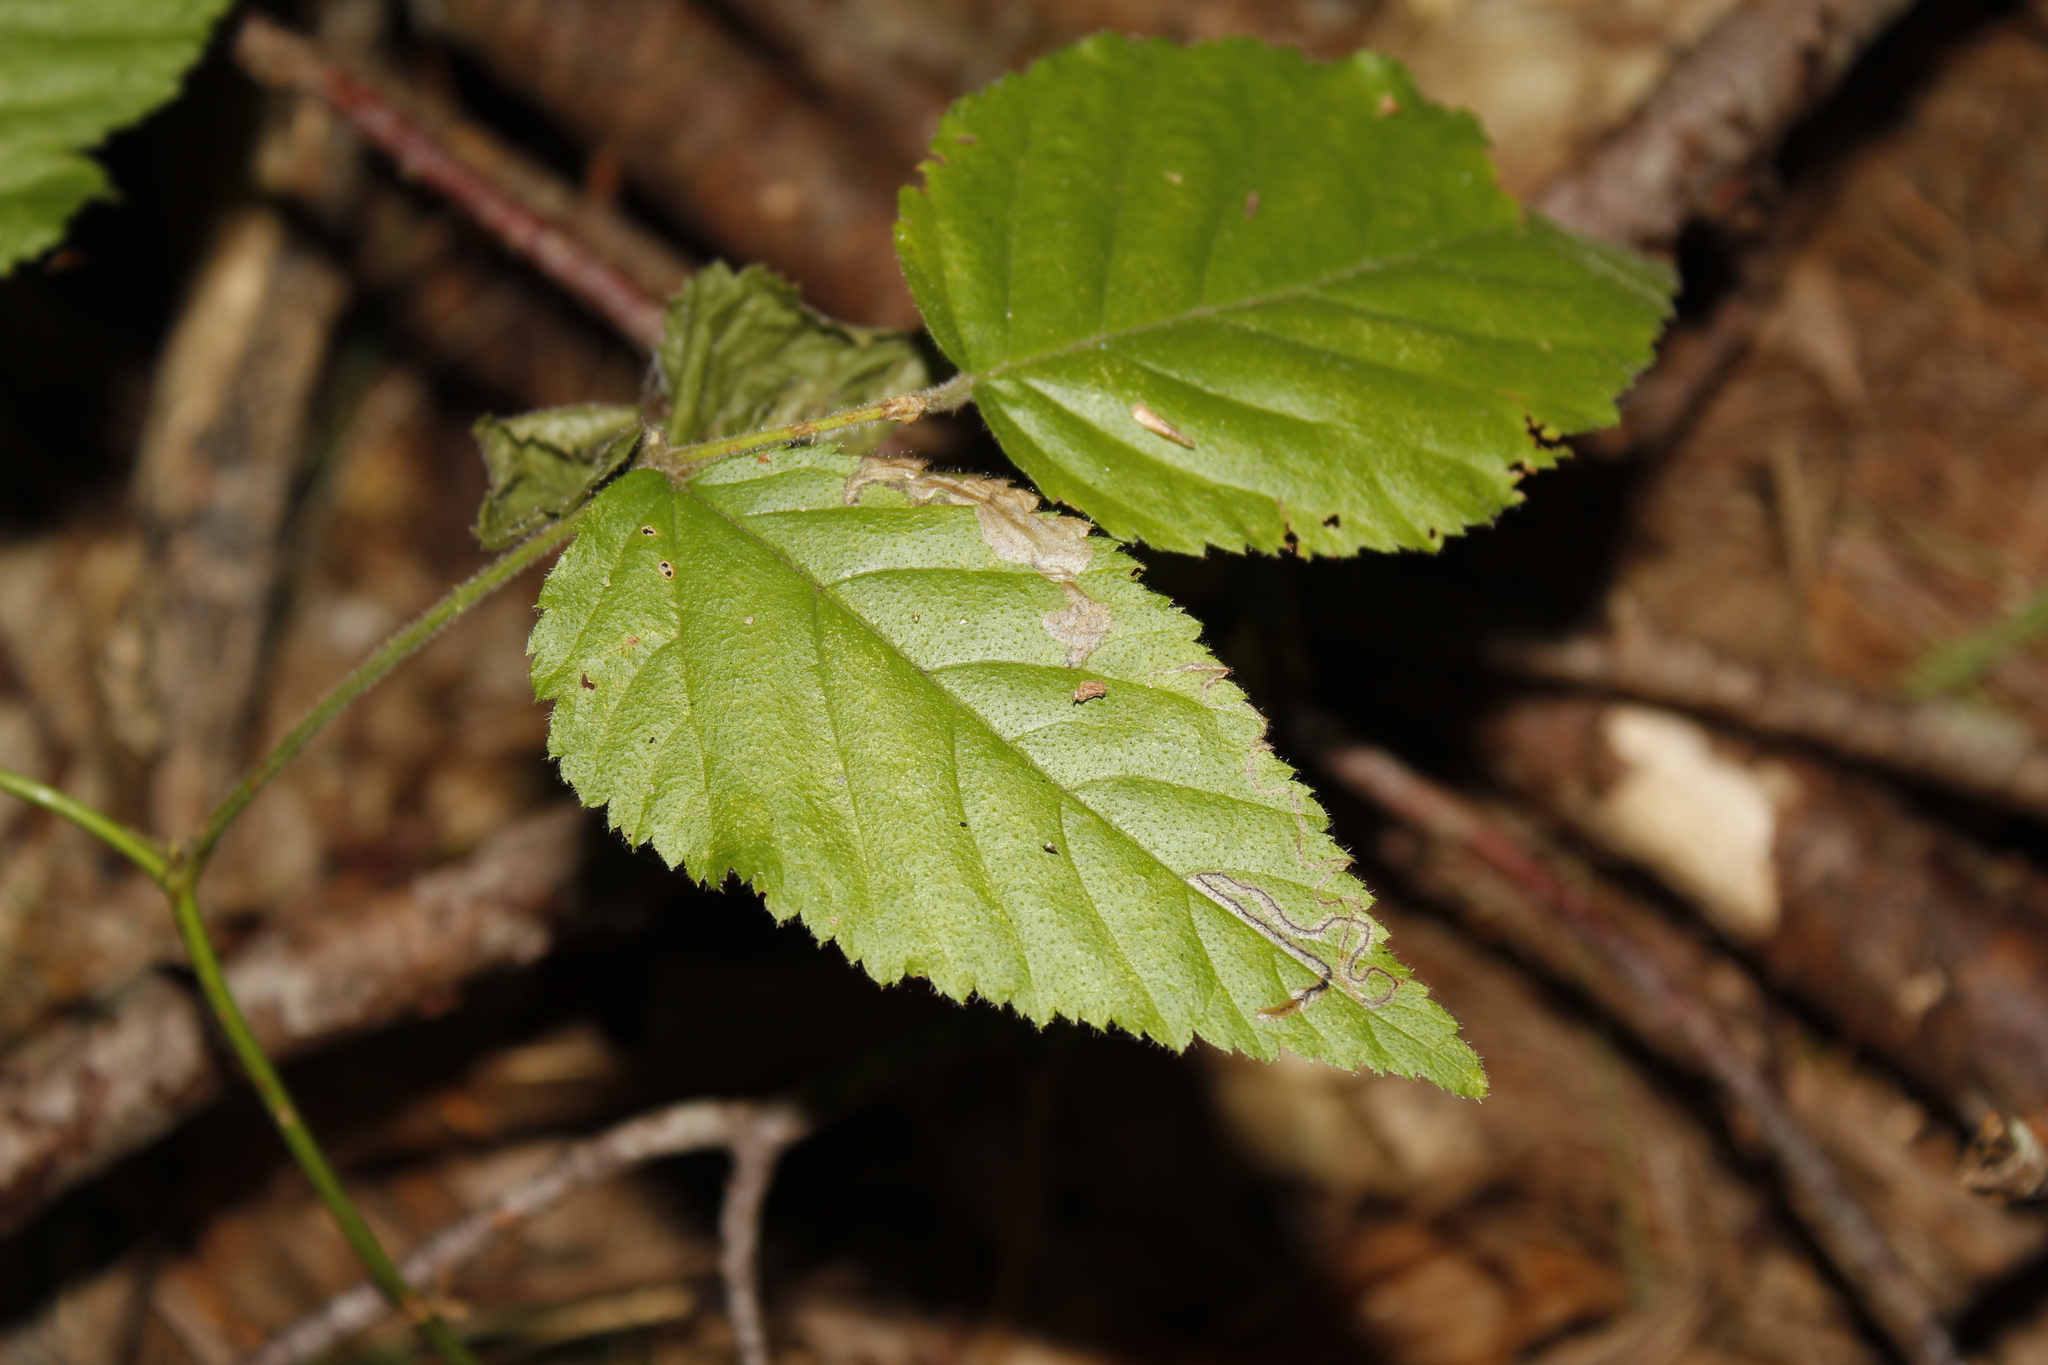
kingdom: Animalia
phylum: Arthropoda
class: Insecta
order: Lepidoptera
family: Nepticulidae
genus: Stigmella
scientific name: Stigmella villosella
